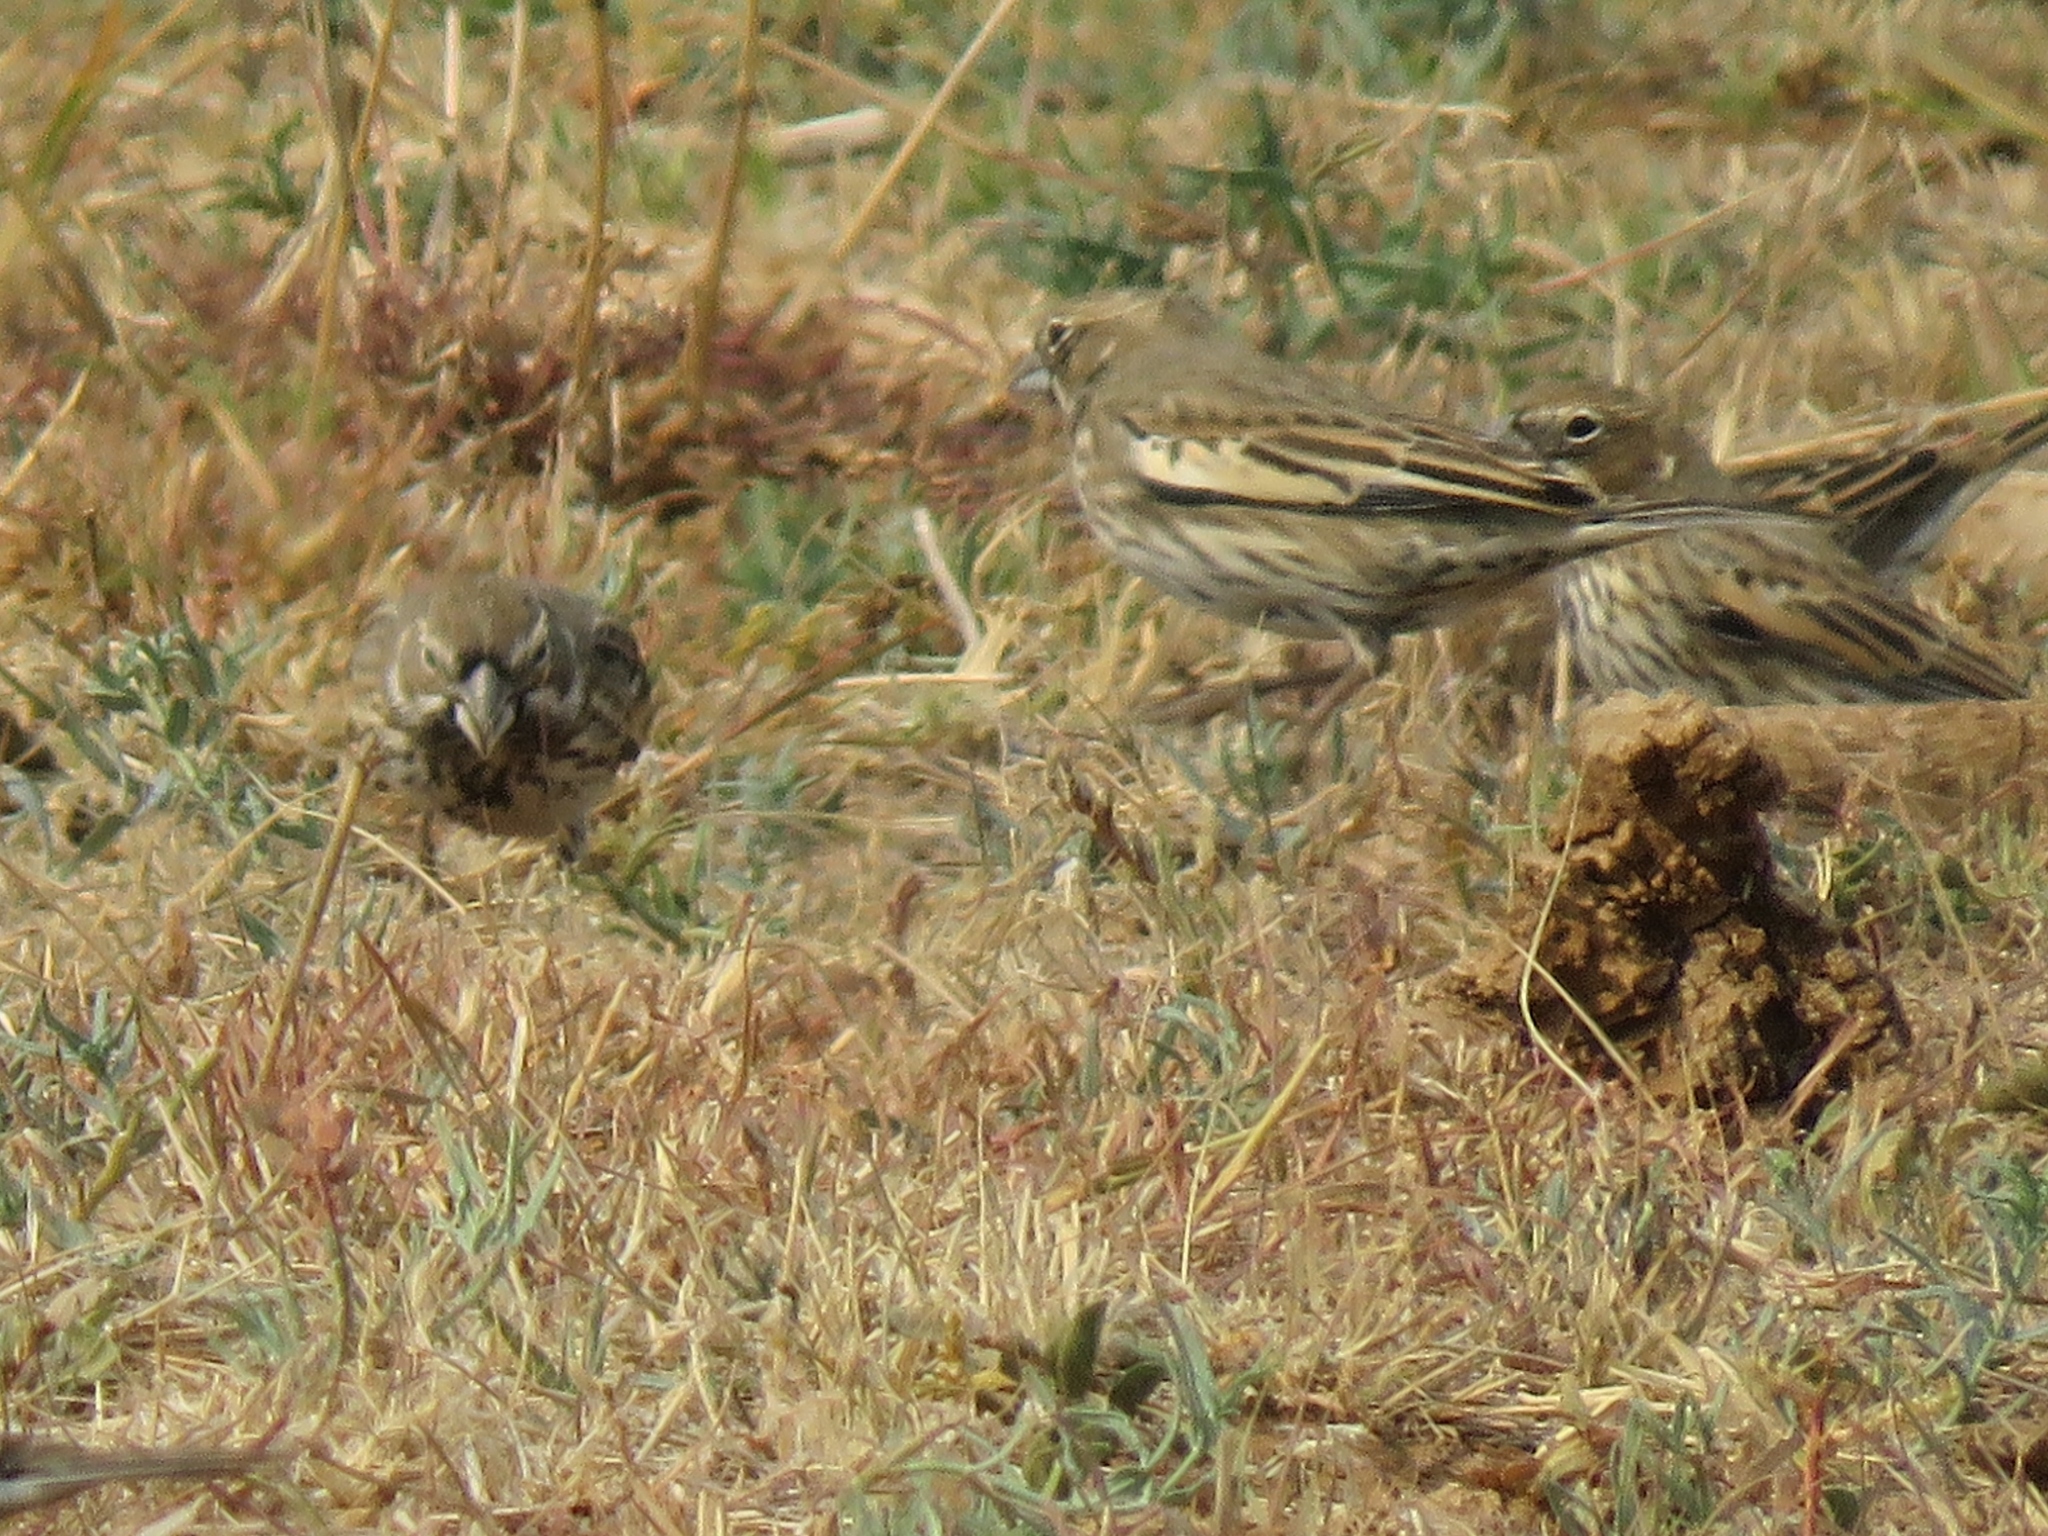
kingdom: Animalia
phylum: Chordata
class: Aves
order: Passeriformes
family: Passerellidae
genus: Calamospiza
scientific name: Calamospiza melanocorys
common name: Lark bunting
